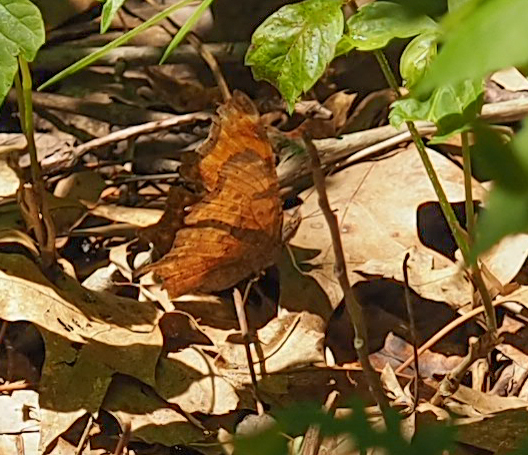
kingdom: Animalia
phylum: Arthropoda
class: Insecta
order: Lepidoptera
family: Nymphalidae
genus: Polygonia
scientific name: Polygonia comma
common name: Eastern comma
